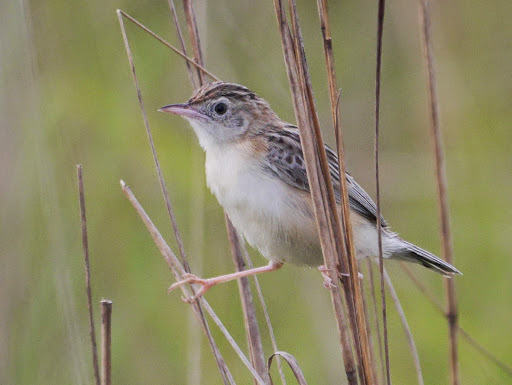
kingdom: Animalia
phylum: Chordata
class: Aves
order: Passeriformes
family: Cisticolidae
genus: Cisticola
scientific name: Cisticola juncidis
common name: Zitting cisticola
